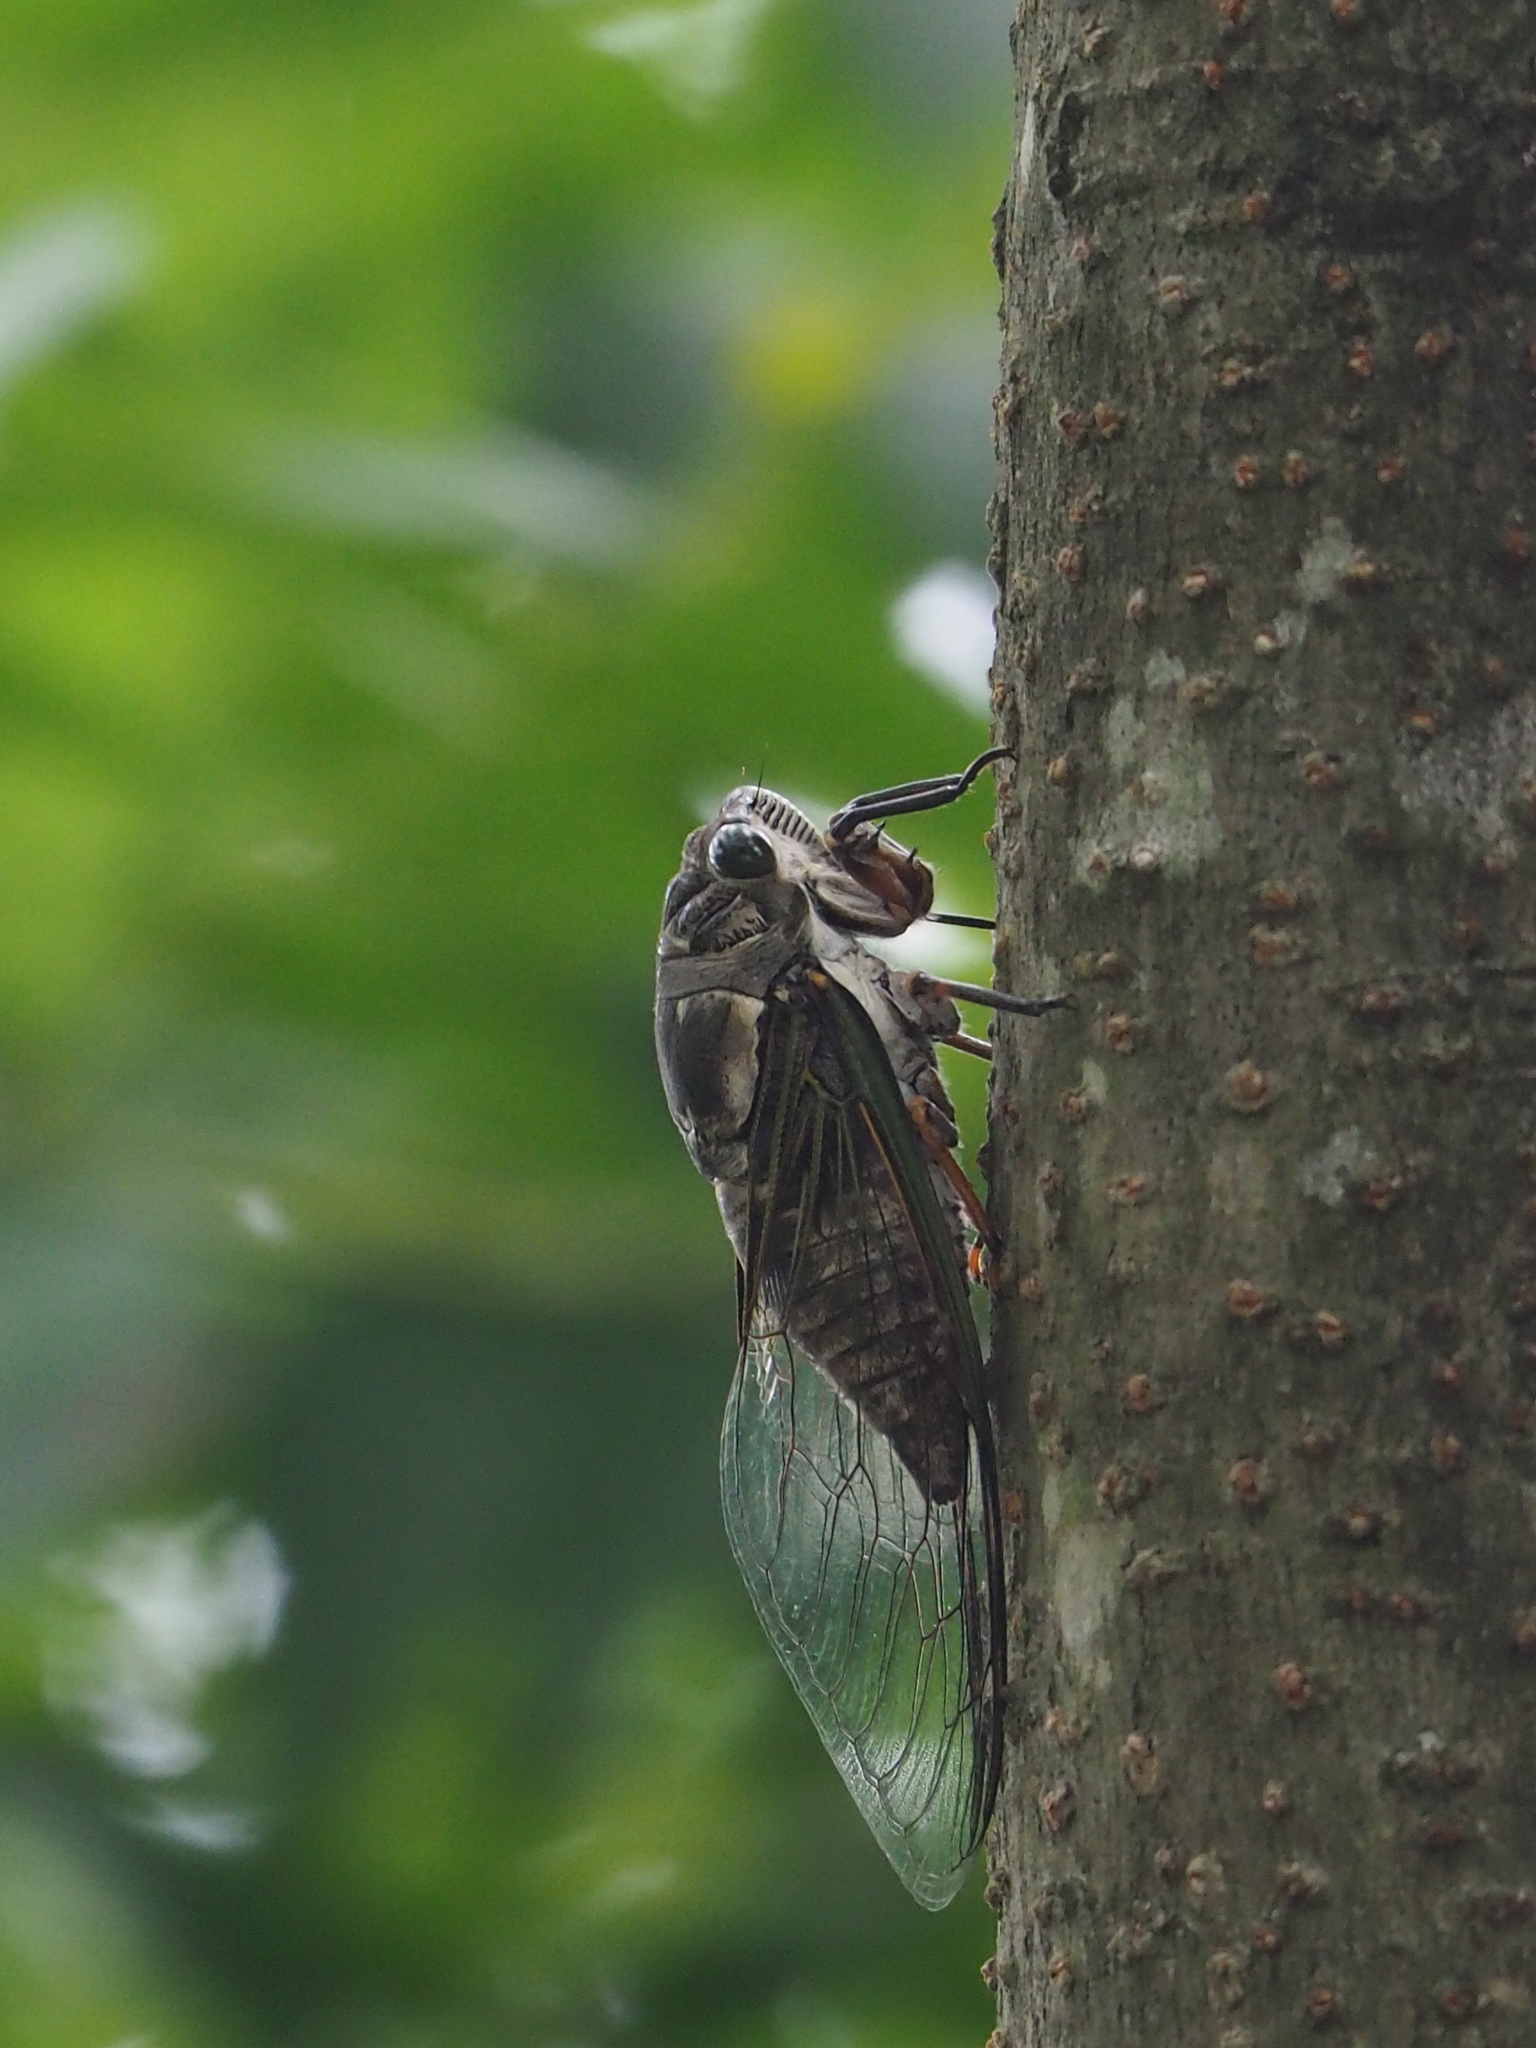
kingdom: Animalia
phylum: Arthropoda
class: Insecta
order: Hemiptera
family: Cicadidae
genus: Cryptotympana
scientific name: Cryptotympana takasagona
